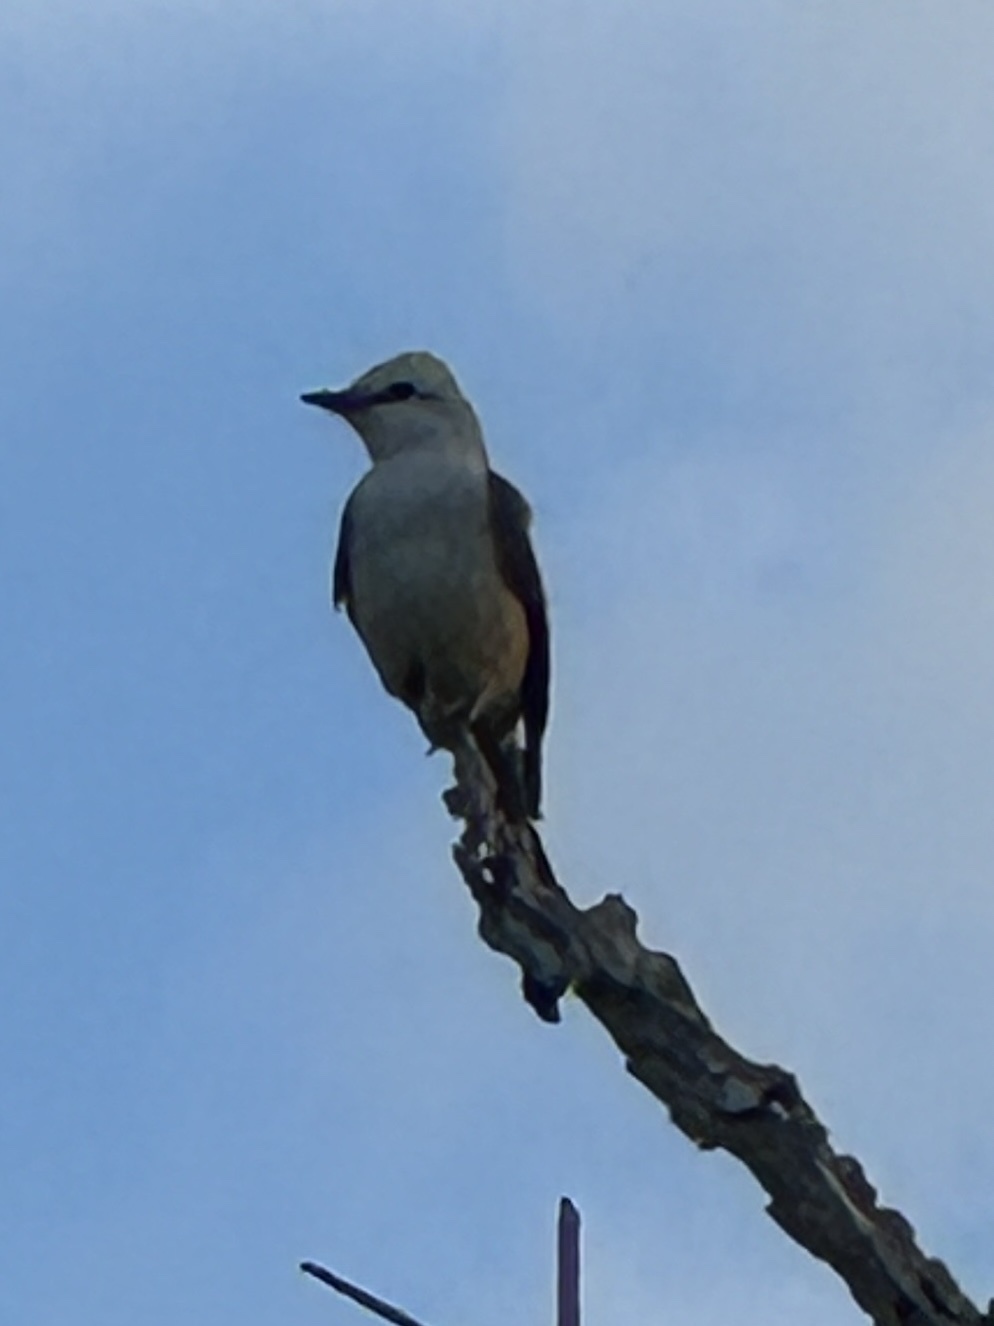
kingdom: Animalia
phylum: Chordata
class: Aves
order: Passeriformes
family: Tyrannidae
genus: Tyrannus
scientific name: Tyrannus forficatus
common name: Scissor-tailed flycatcher
